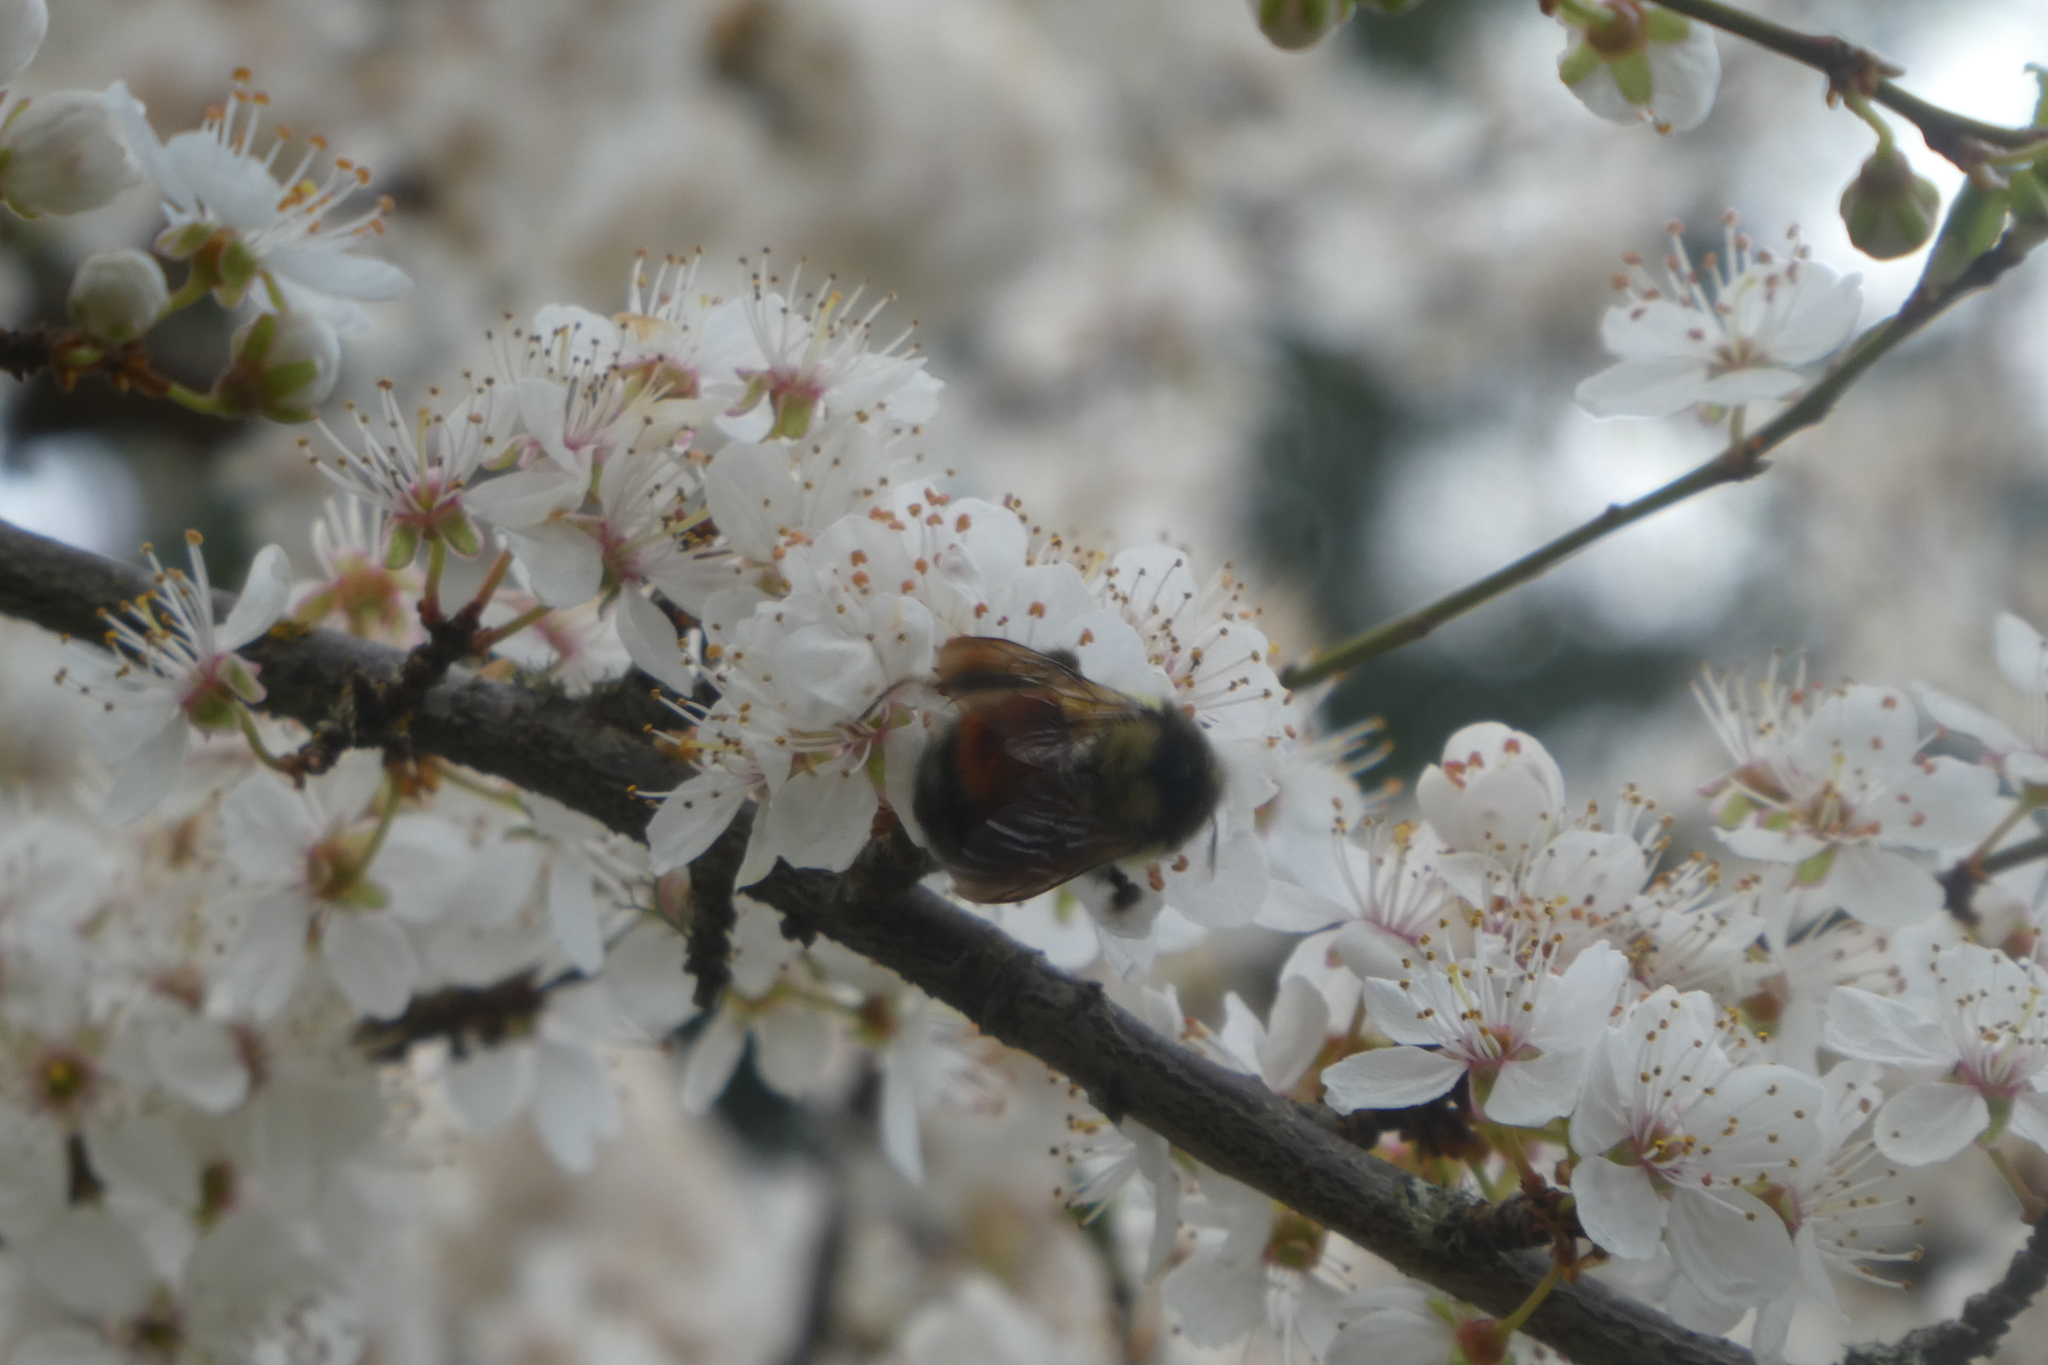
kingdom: Animalia
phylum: Arthropoda
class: Insecta
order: Hymenoptera
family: Apidae
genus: Bombus
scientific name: Bombus melanopygus
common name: Black tail bumble bee
